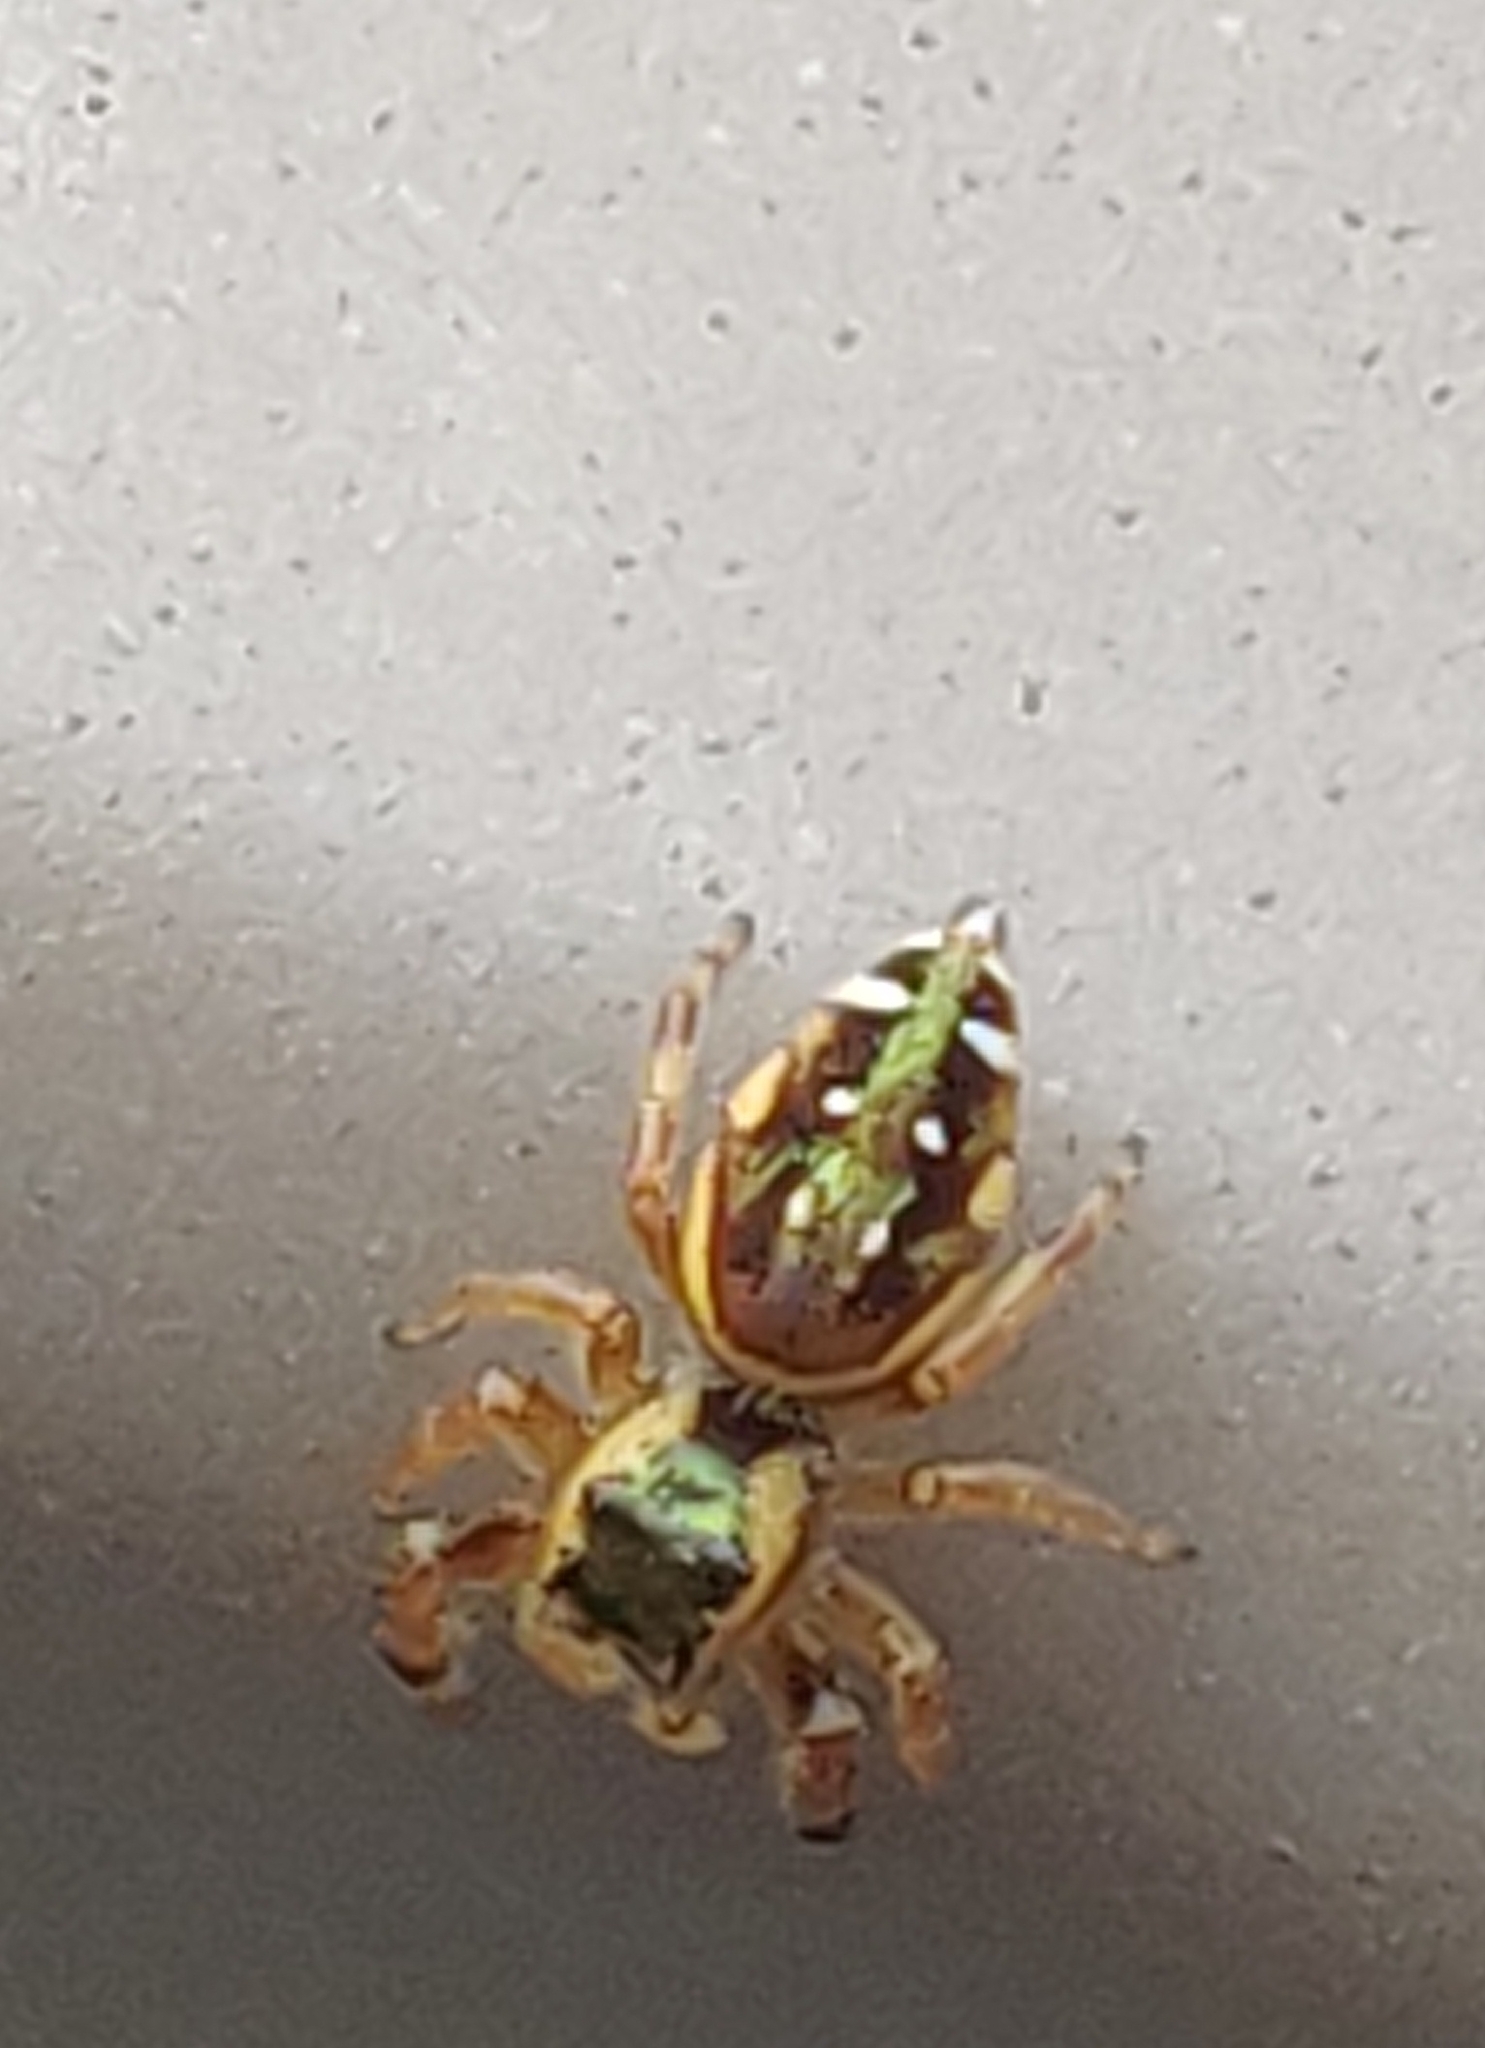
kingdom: Animalia
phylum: Arthropoda
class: Arachnida
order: Araneae
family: Salticidae
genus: Paraphidippus
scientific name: Paraphidippus aurantius
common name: Jumping spiders
